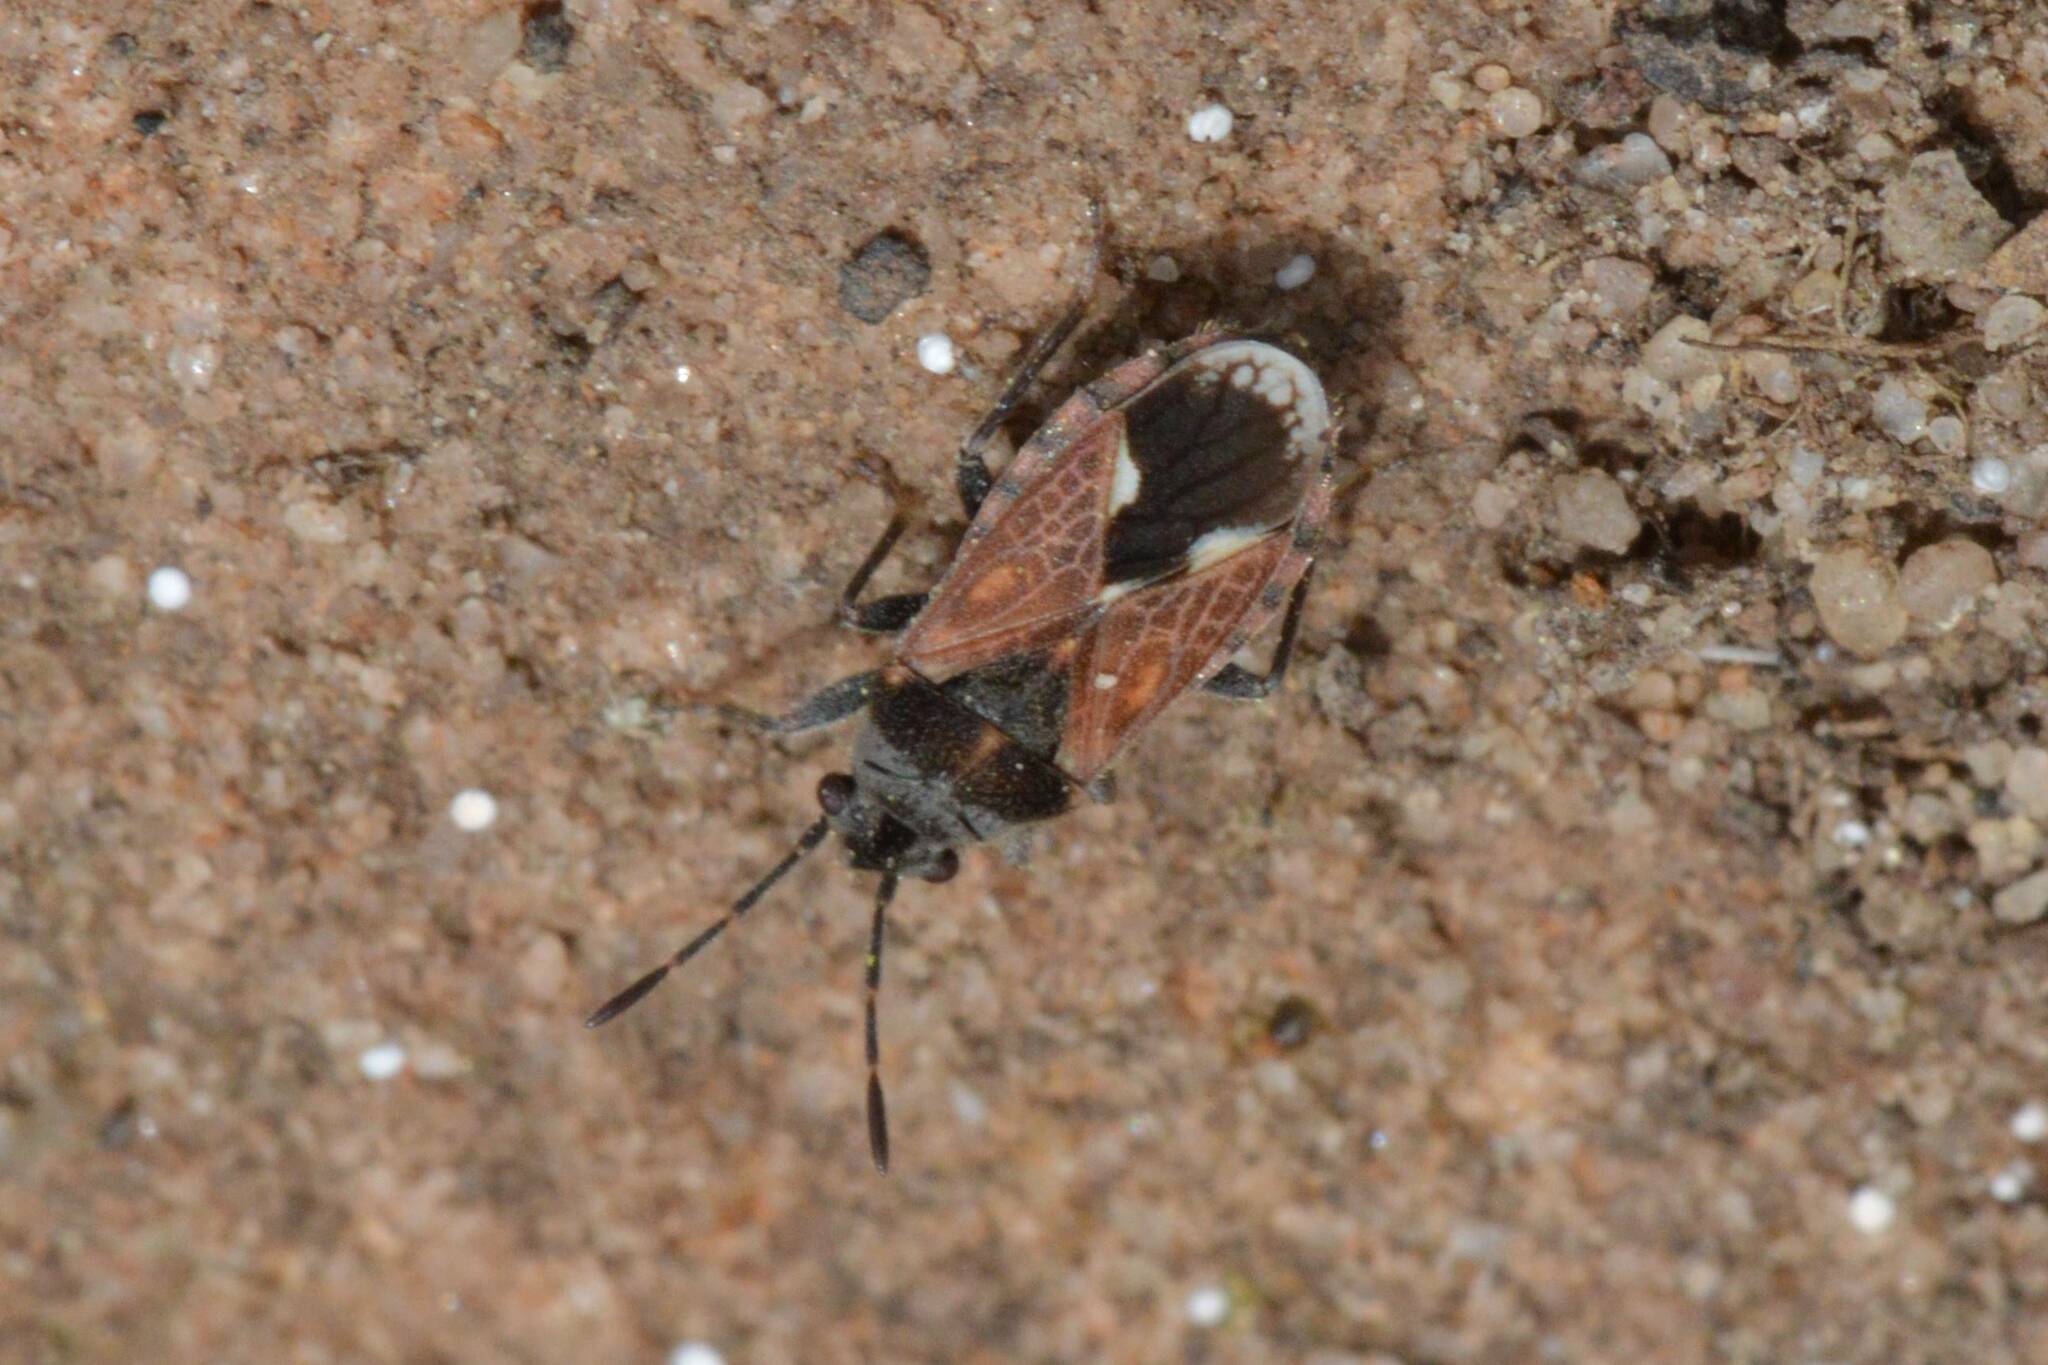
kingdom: Animalia
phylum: Arthropoda
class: Insecta
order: Hemiptera
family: Lygaeidae
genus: Lygaeosoma
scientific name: Lygaeosoma sardeum
